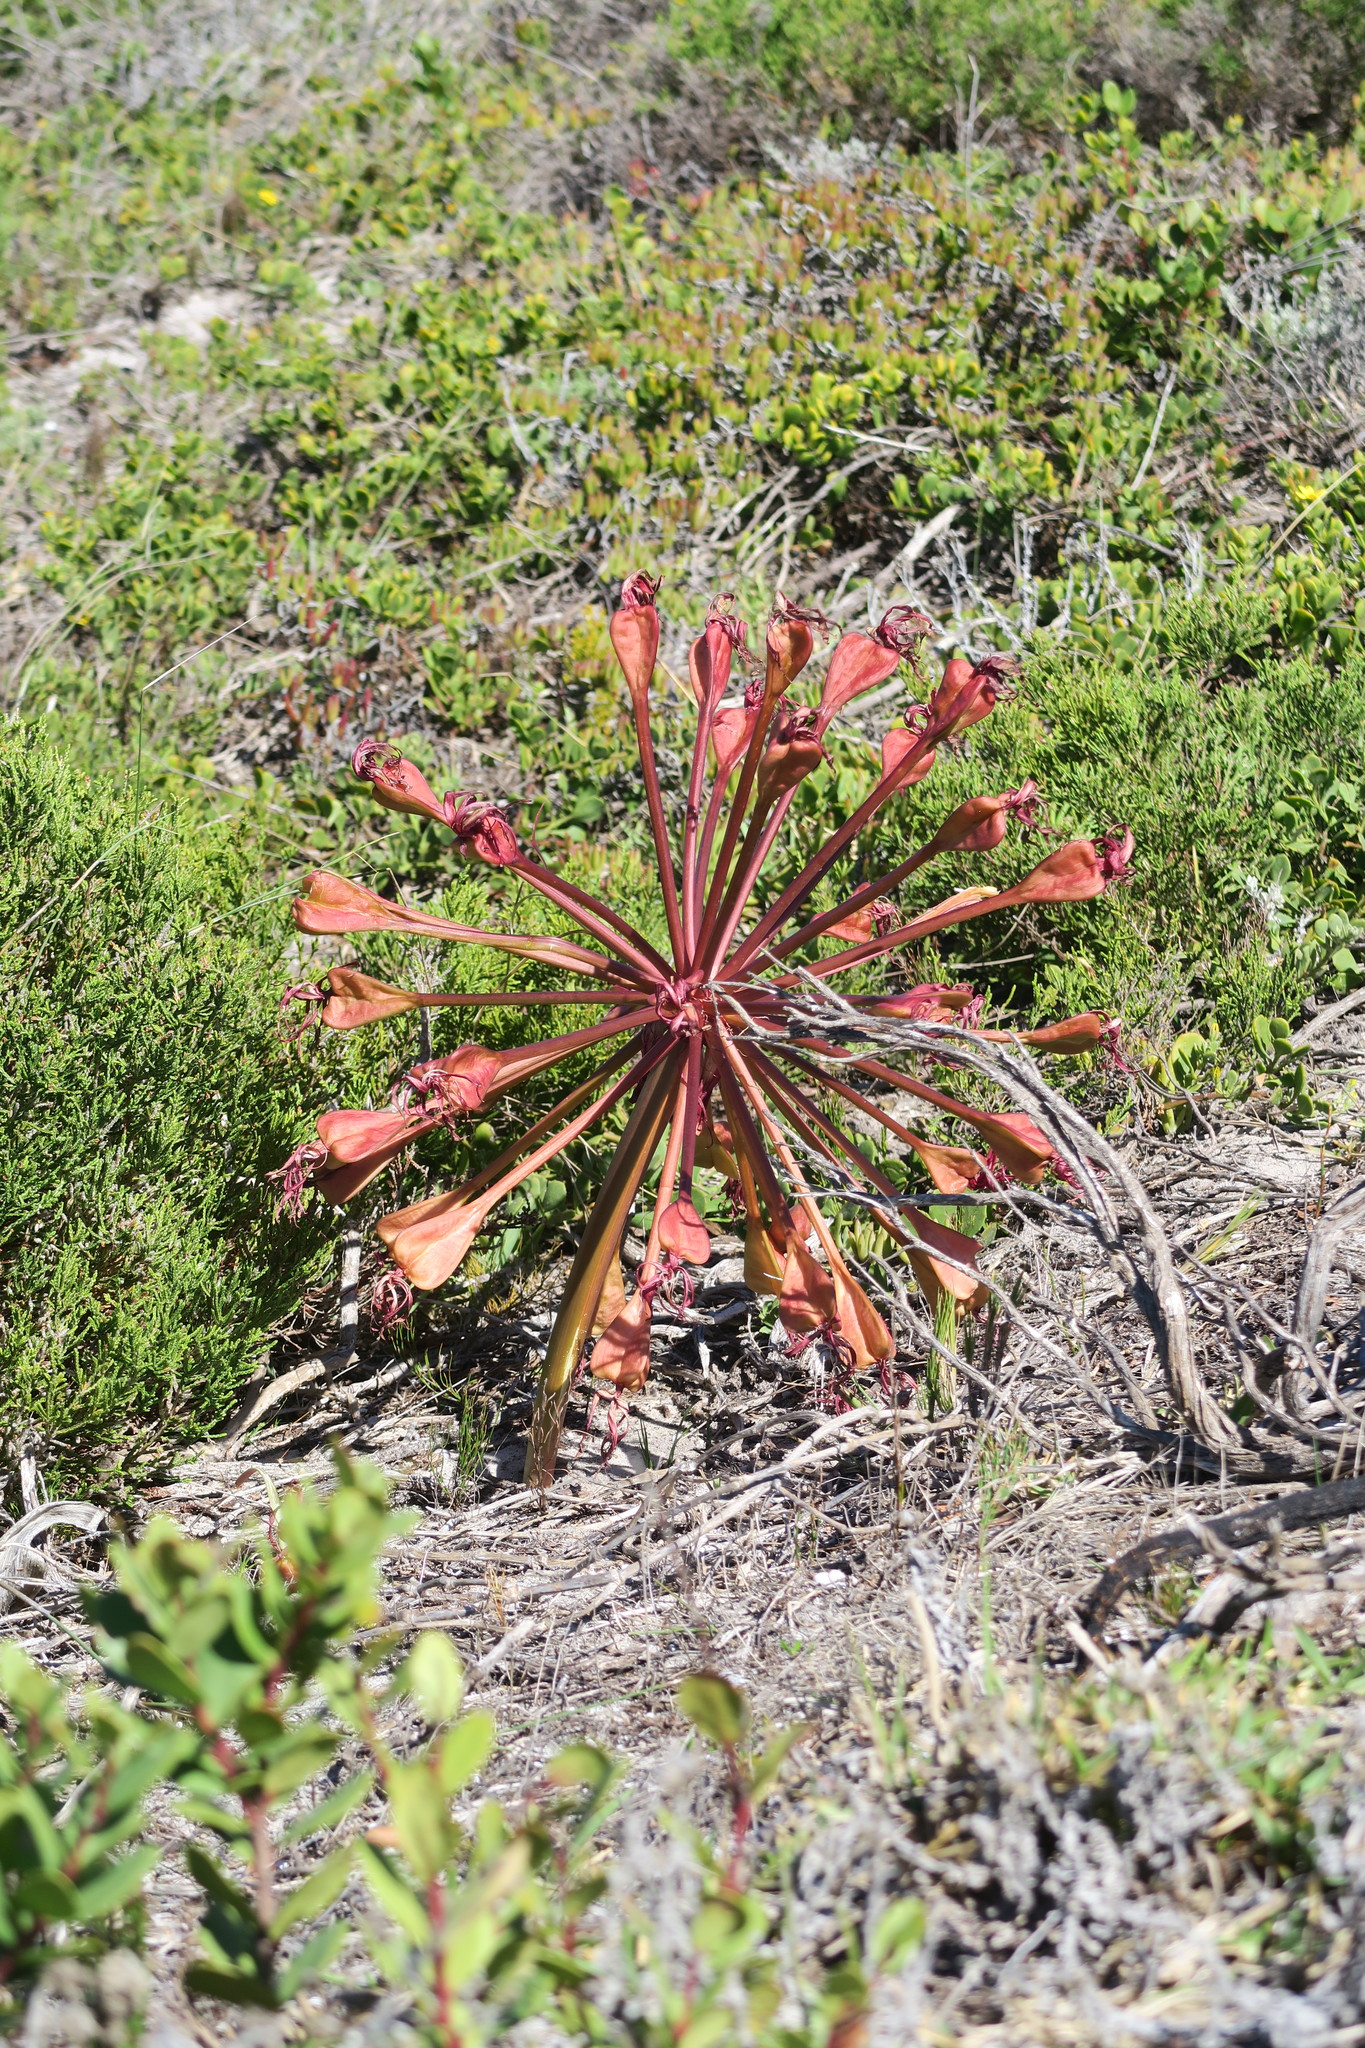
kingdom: Plantae
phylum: Tracheophyta
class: Liliopsida
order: Asparagales
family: Amaryllidaceae
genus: Brunsvigia
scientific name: Brunsvigia orientalis
